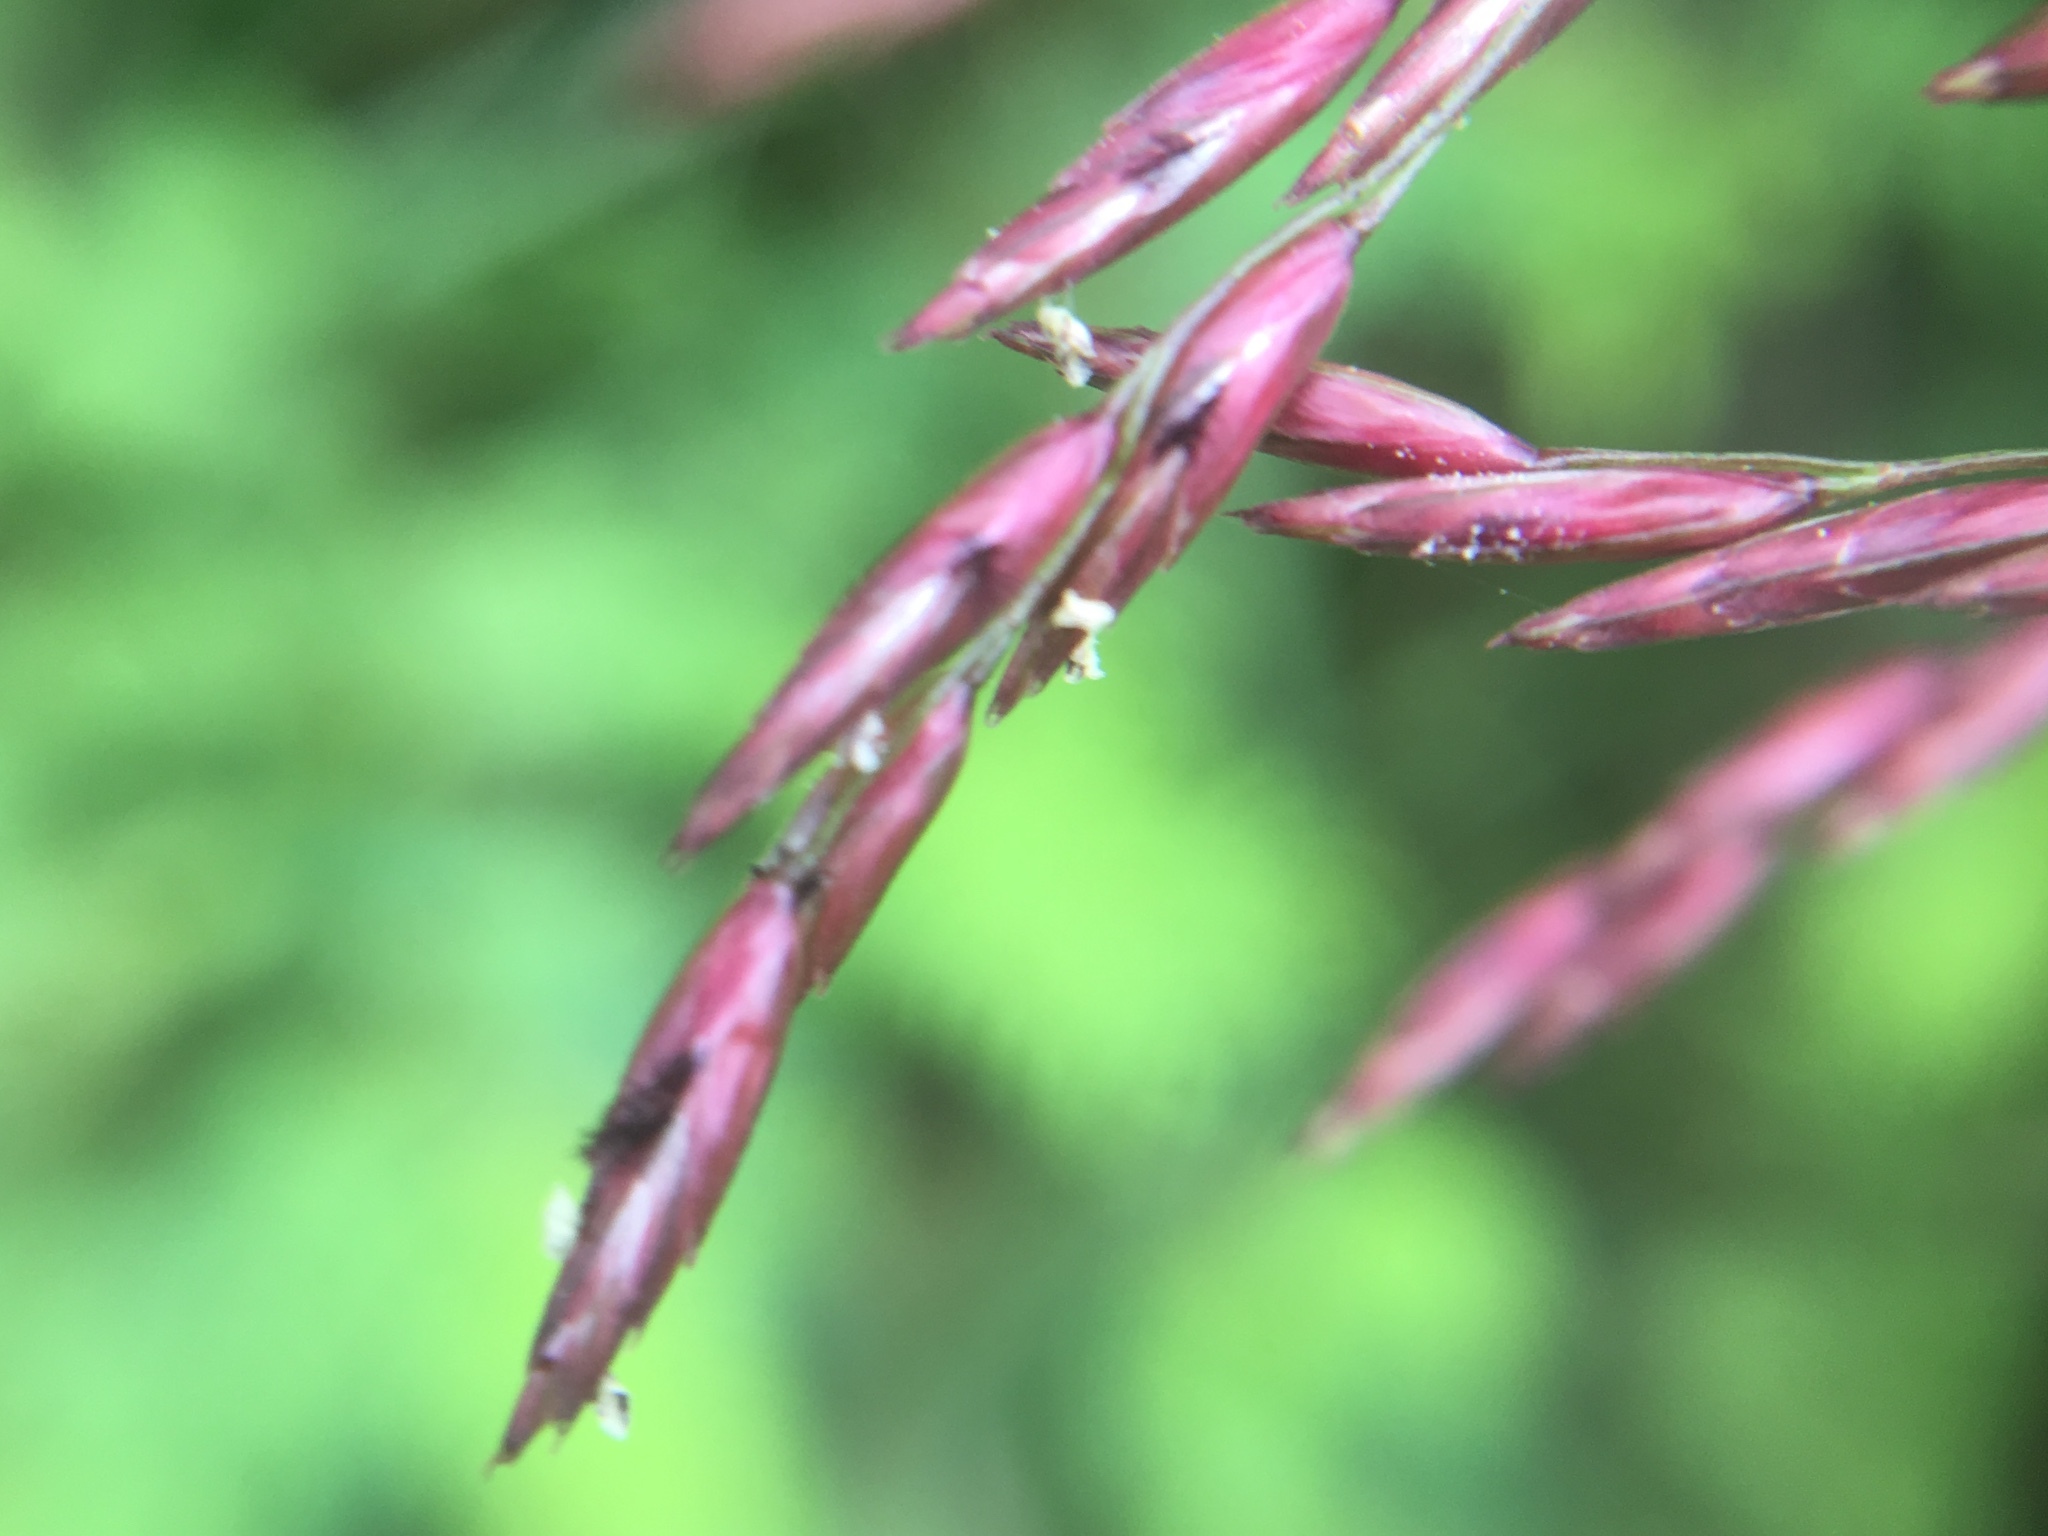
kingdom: Plantae
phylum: Tracheophyta
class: Liliopsida
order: Poales
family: Poaceae
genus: Tridens
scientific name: Tridens flavus
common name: Purpletop
